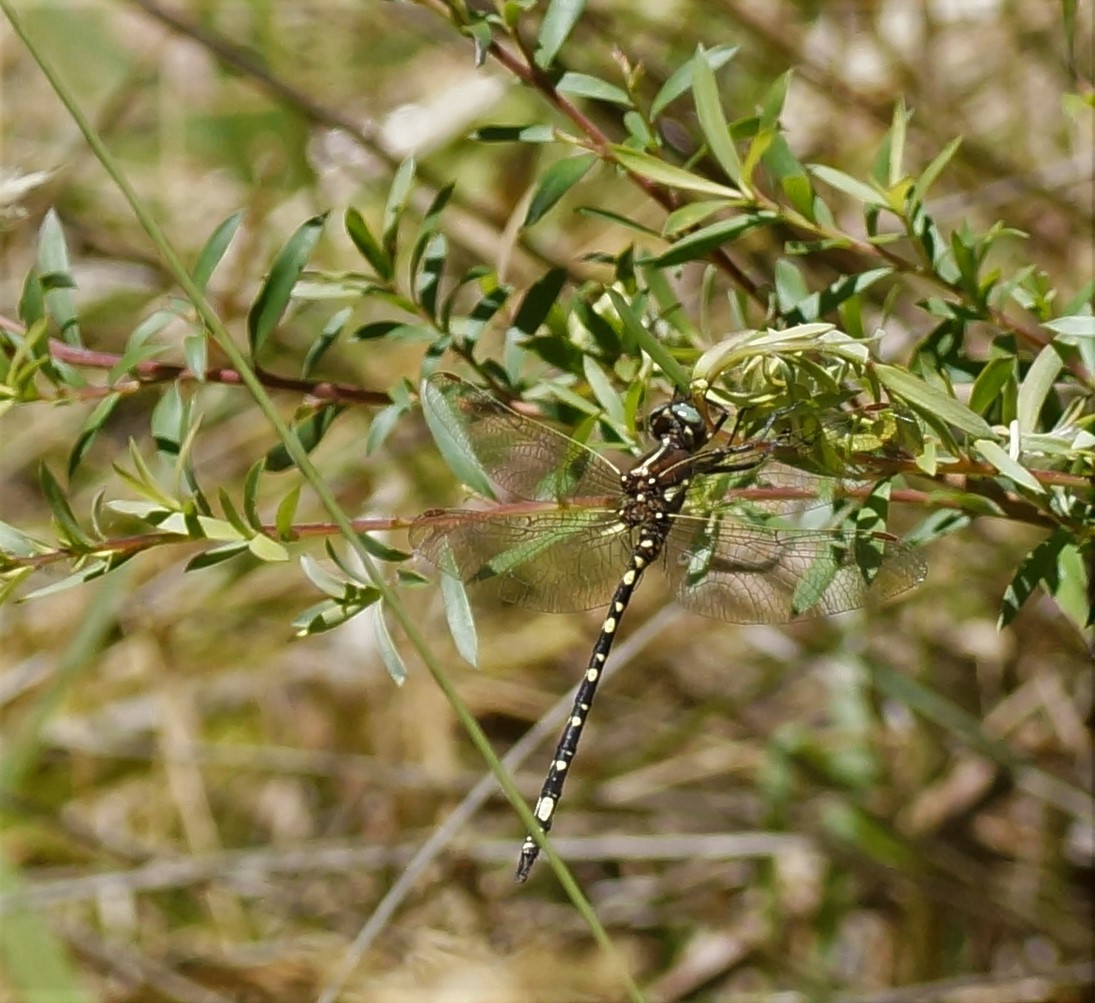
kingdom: Animalia
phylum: Arthropoda
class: Insecta
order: Odonata
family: Synthemistidae
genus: Synthemis
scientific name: Synthemis eustalacta
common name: Swamp tigertail
